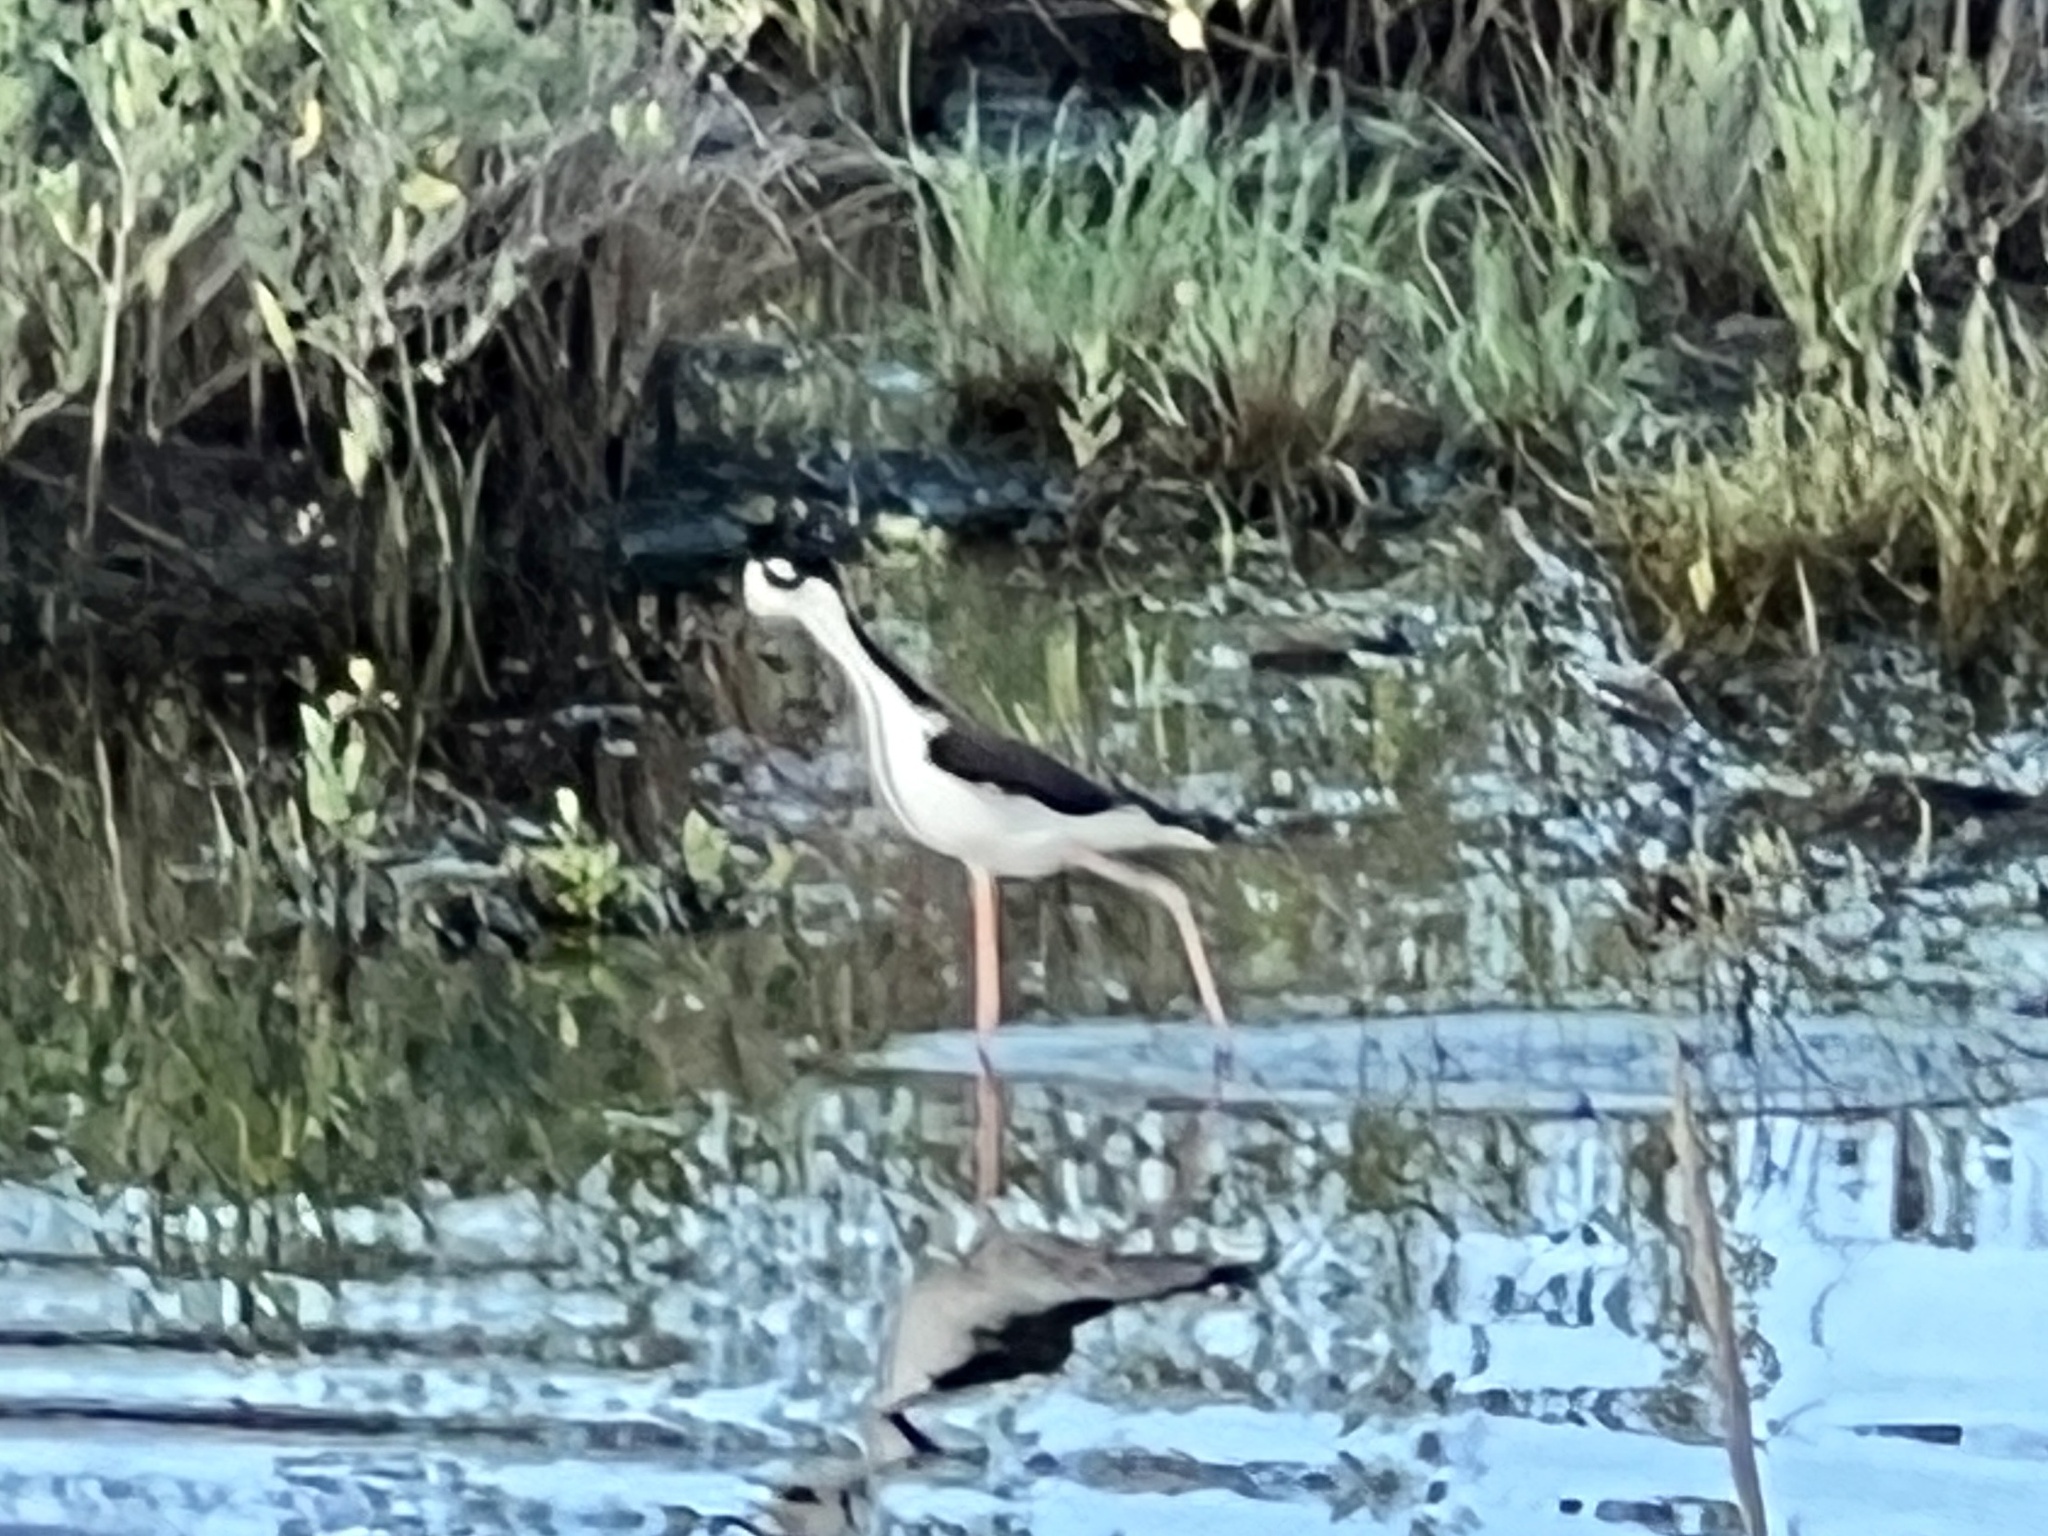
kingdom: Animalia
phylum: Chordata
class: Aves
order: Charadriiformes
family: Recurvirostridae
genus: Himantopus
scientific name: Himantopus mexicanus
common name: Black-necked stilt
